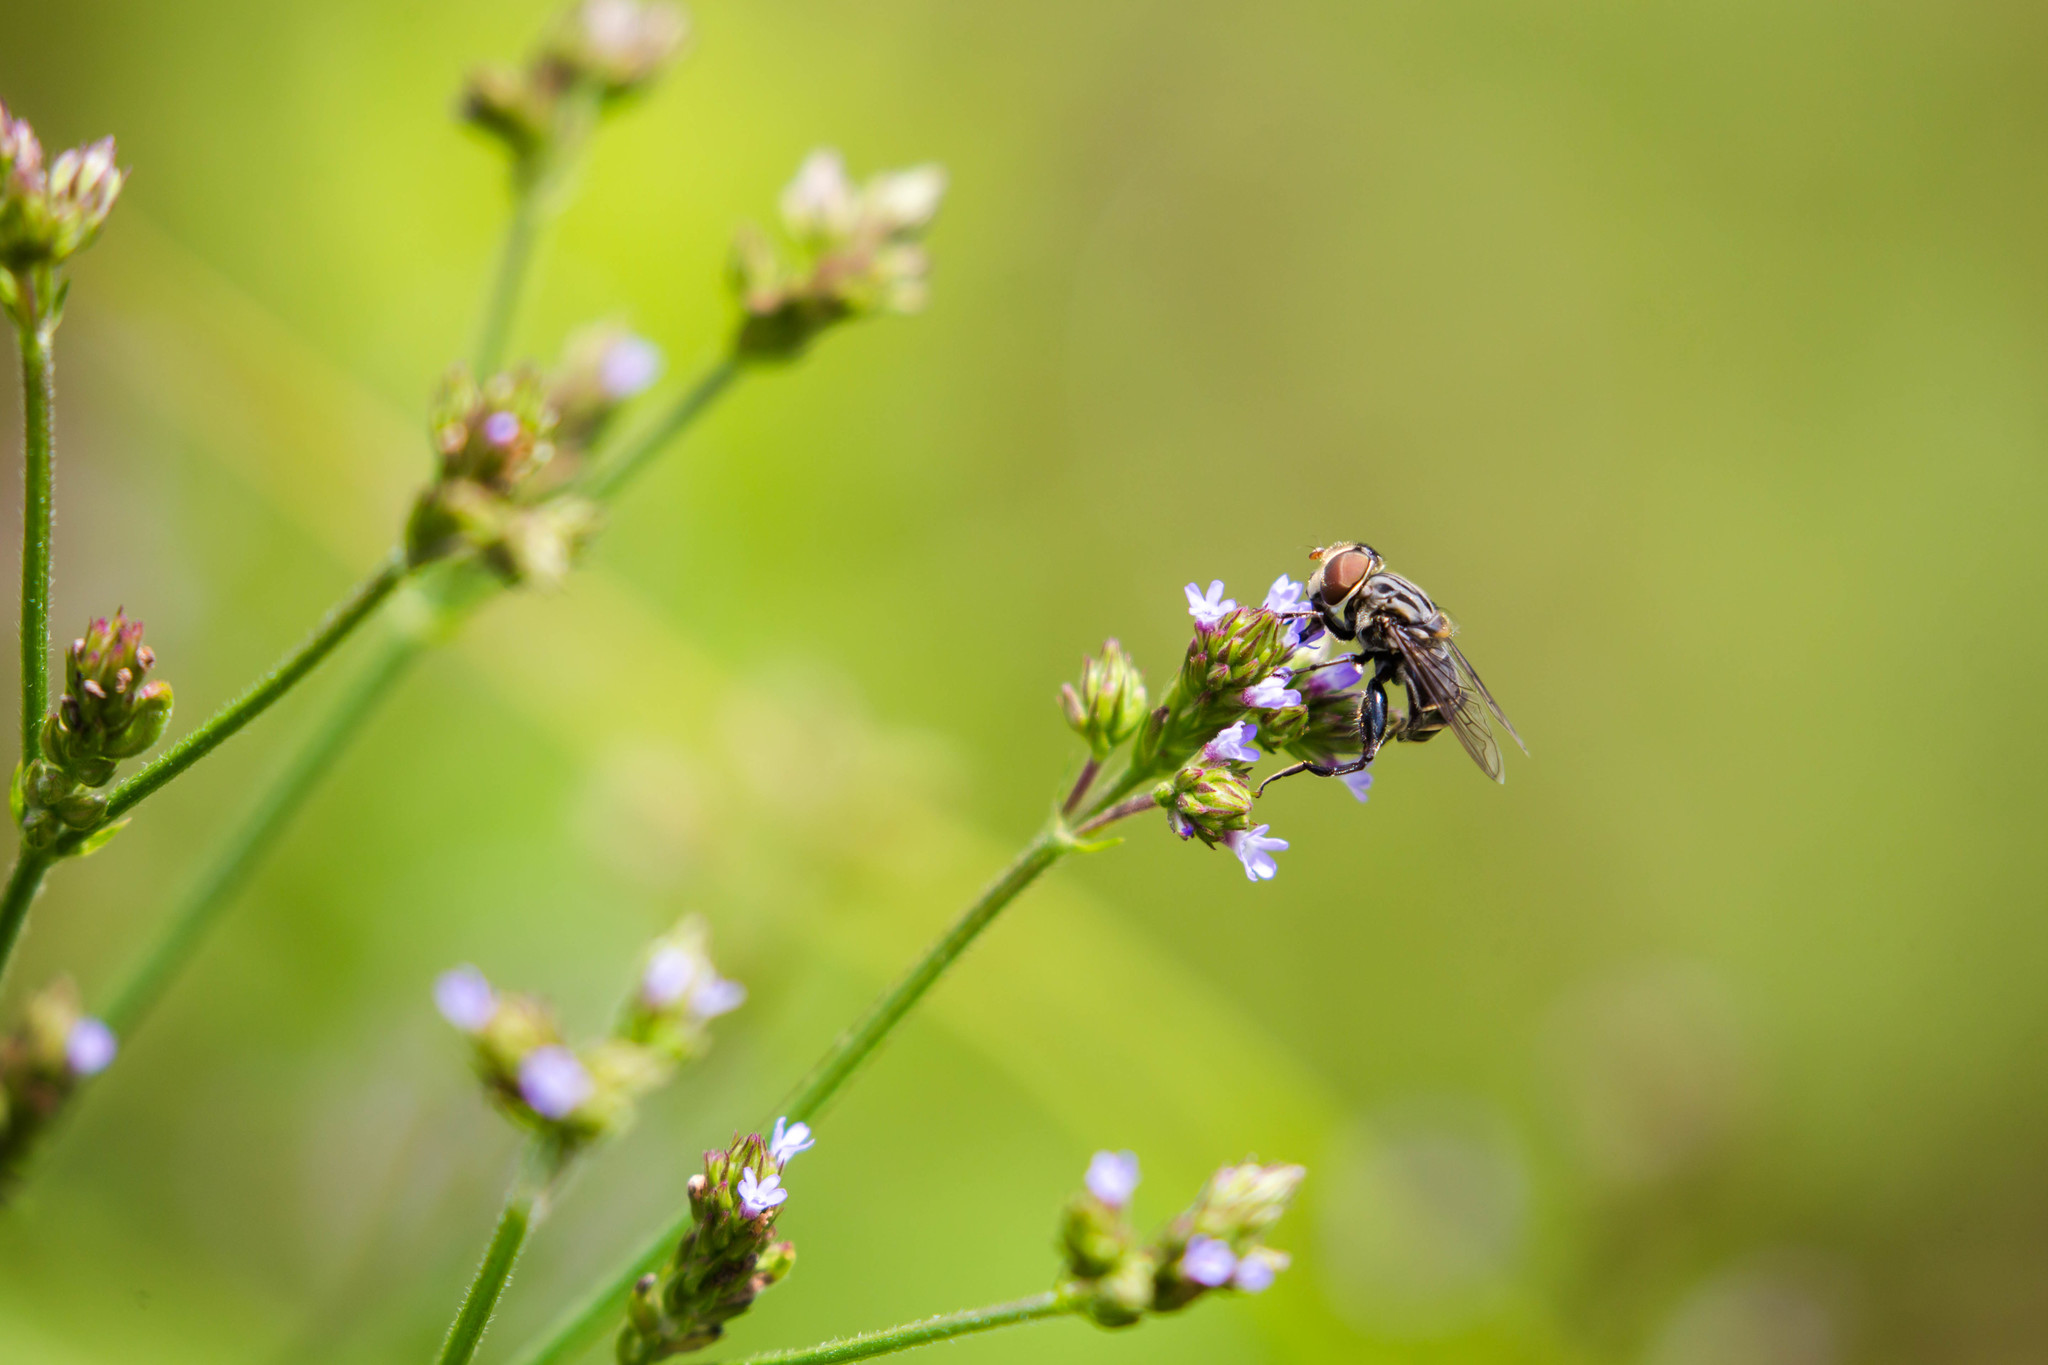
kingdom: Animalia
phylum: Arthropoda
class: Insecta
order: Diptera
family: Syrphidae
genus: Palpada
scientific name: Palpada furcata
